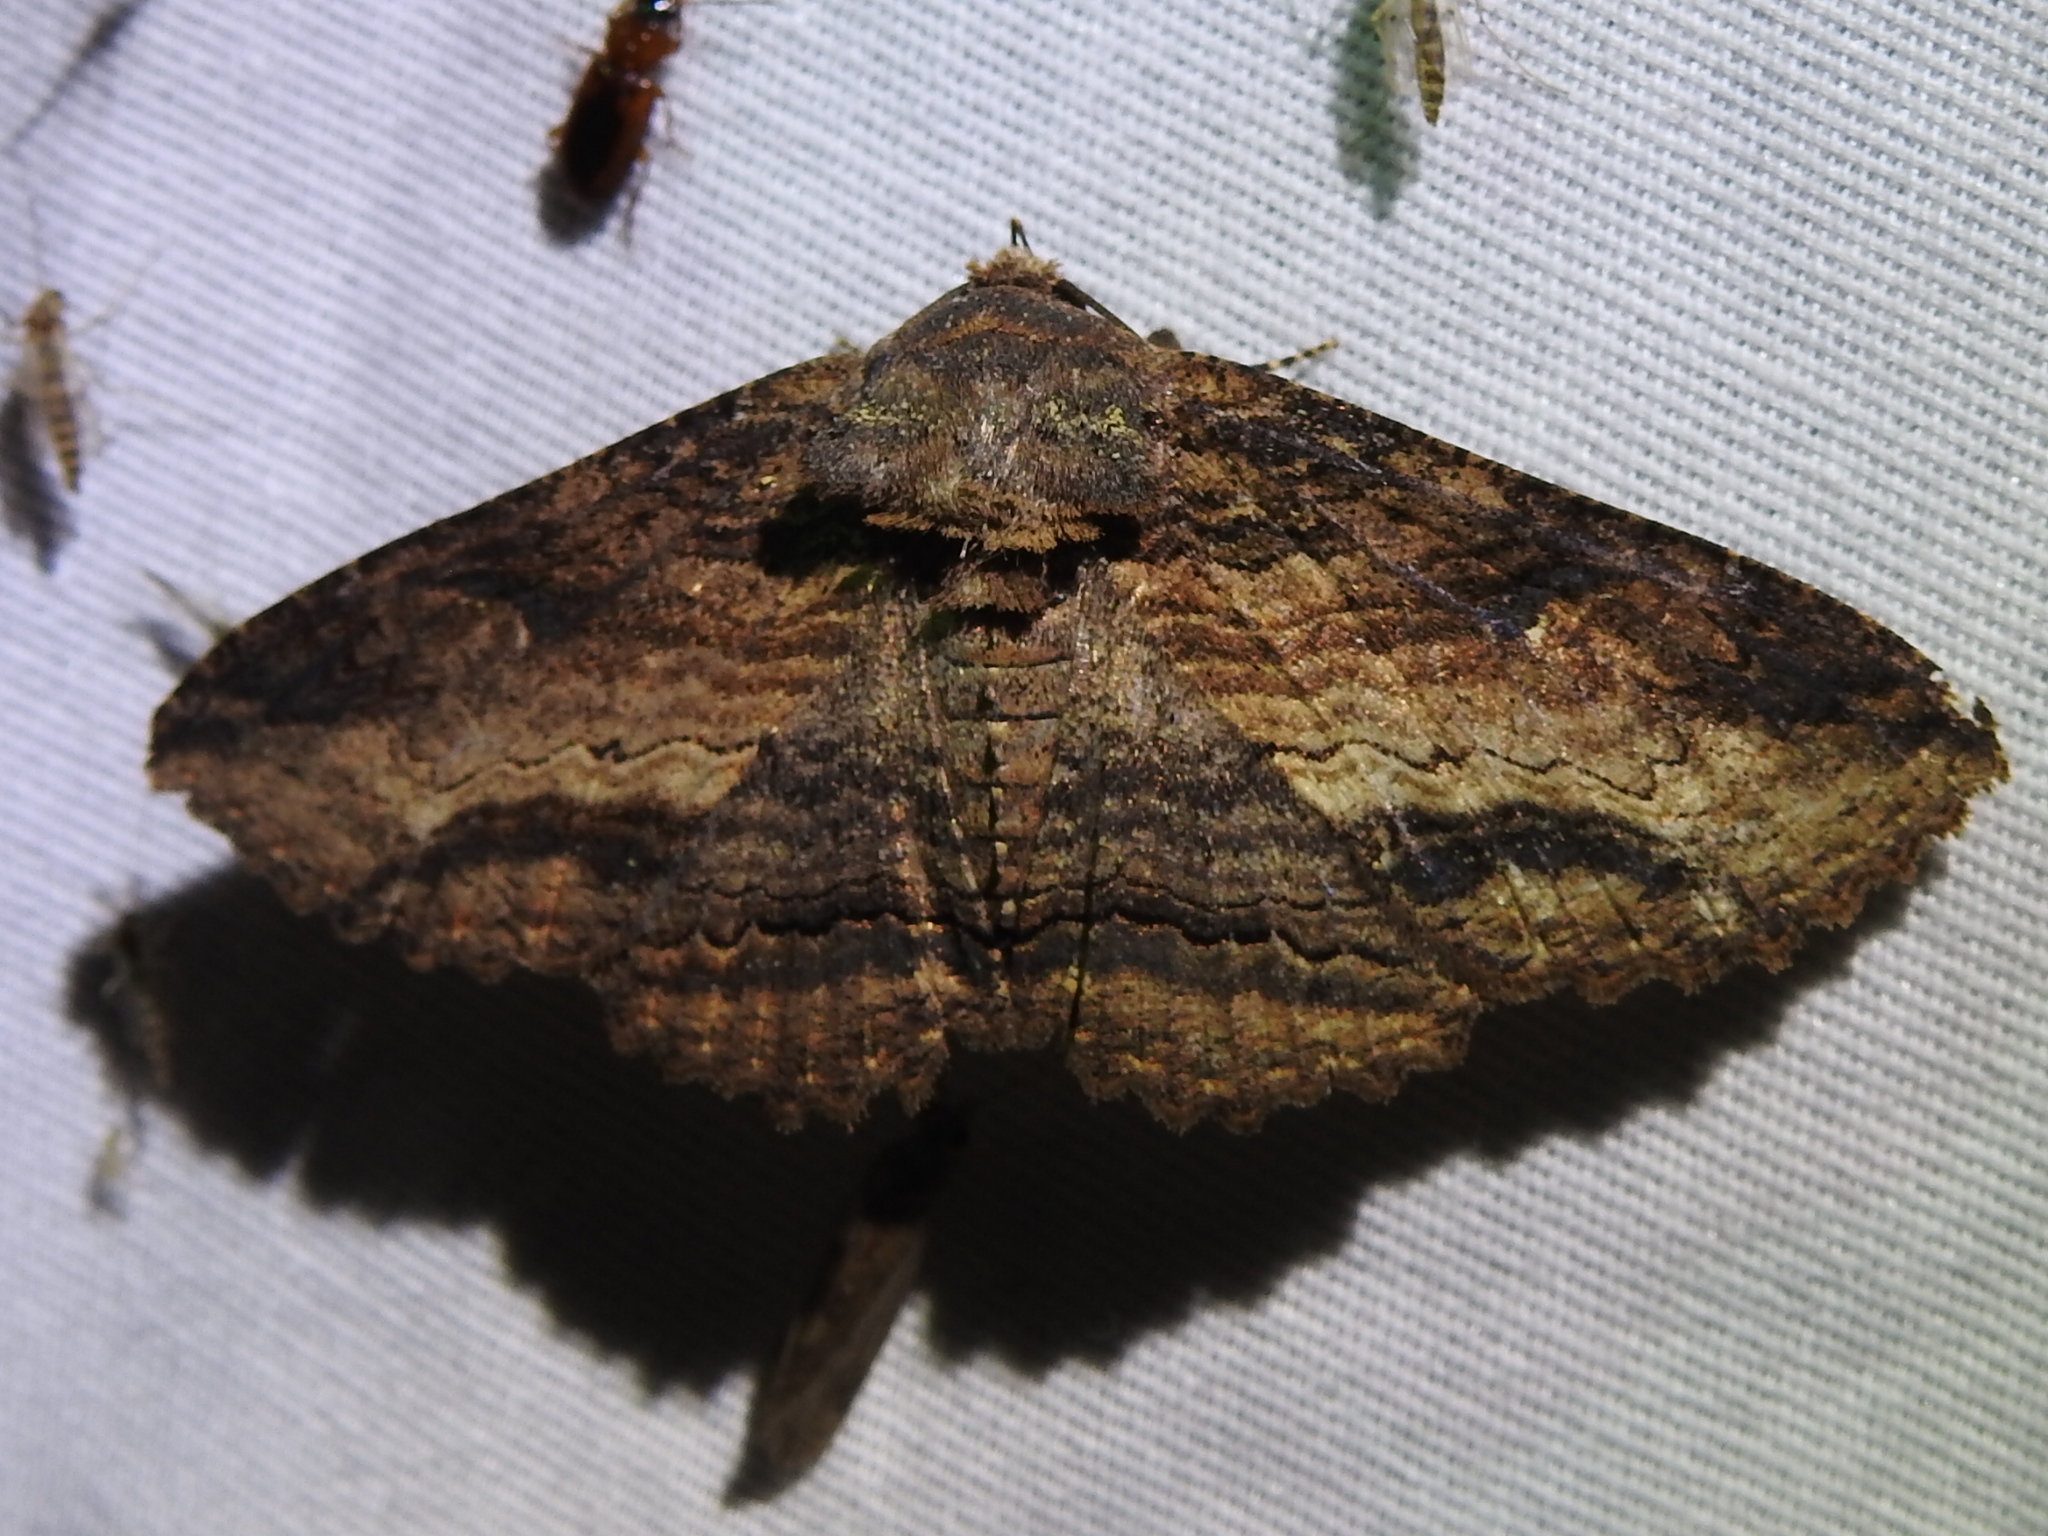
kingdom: Animalia
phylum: Arthropoda
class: Insecta
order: Lepidoptera
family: Erebidae
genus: Zale
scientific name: Zale lunata
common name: Lunate zale moth
